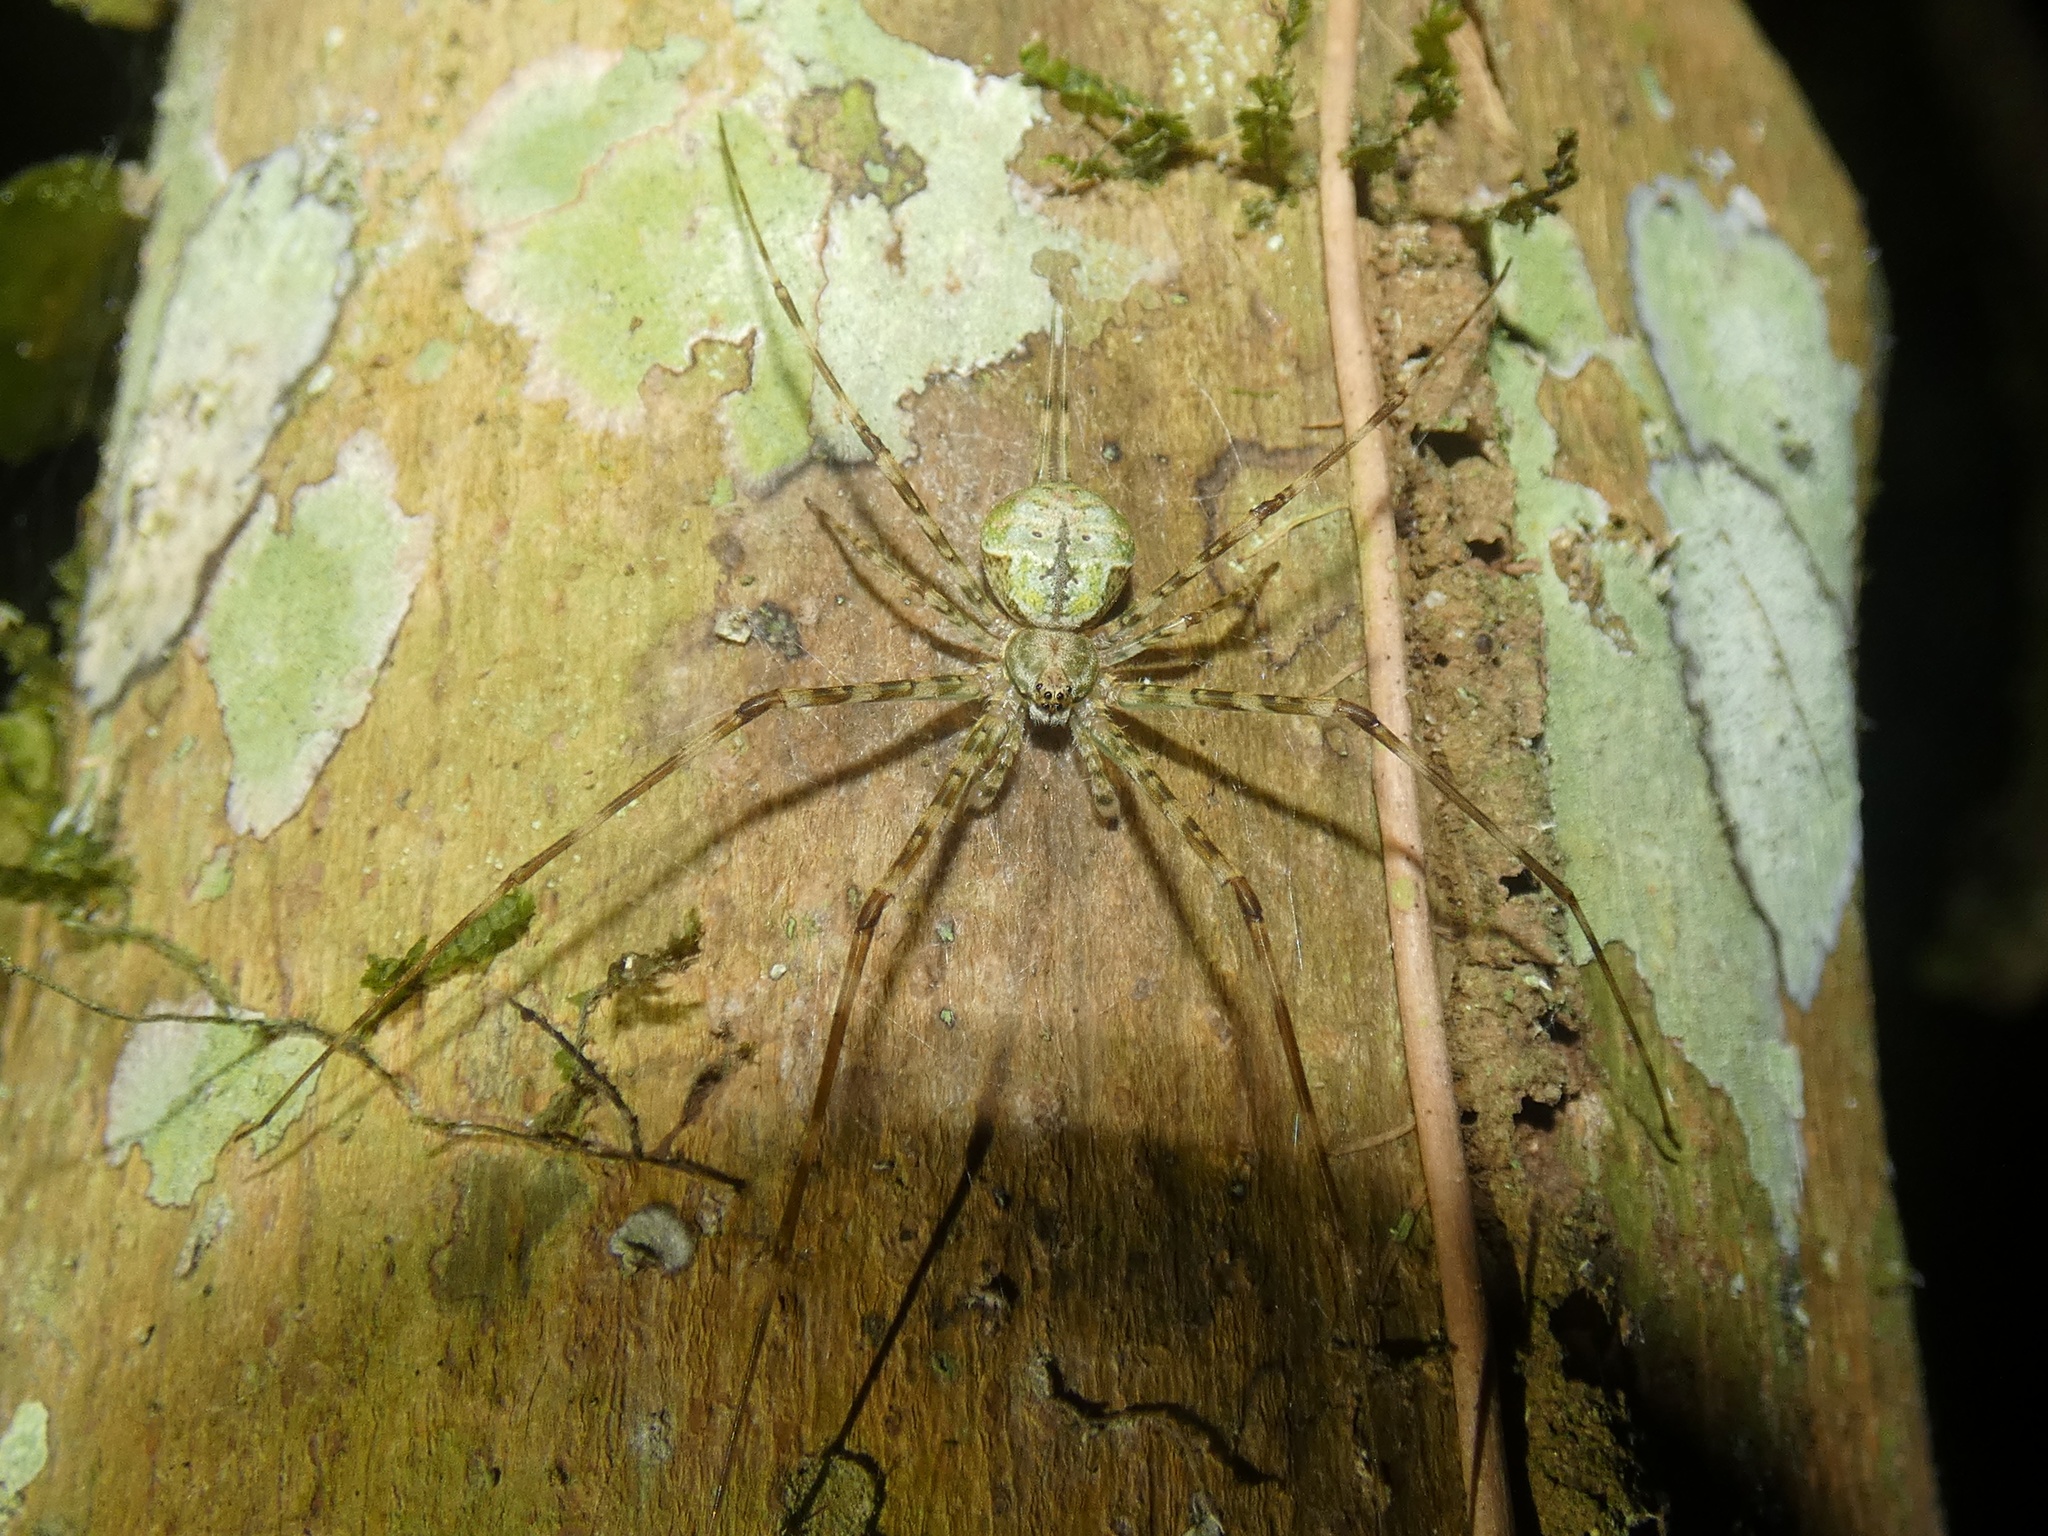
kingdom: Animalia
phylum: Arthropoda
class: Arachnida
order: Araneae
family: Hersiliidae
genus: Neotama
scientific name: Neotama mexicana
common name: Tree trunk spiders
